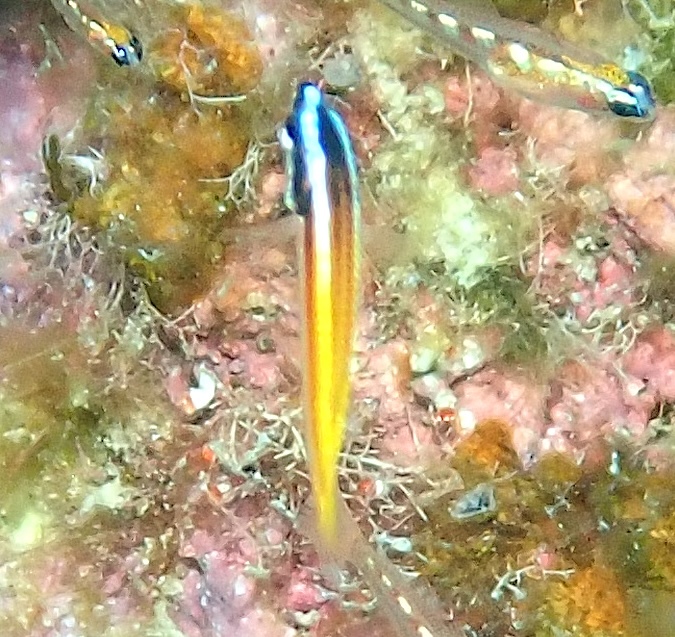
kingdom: Animalia
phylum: Chordata
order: Perciformes
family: Labridae
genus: Halichoeres
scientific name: Halichoeres pictus
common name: Rainbow wrasse
